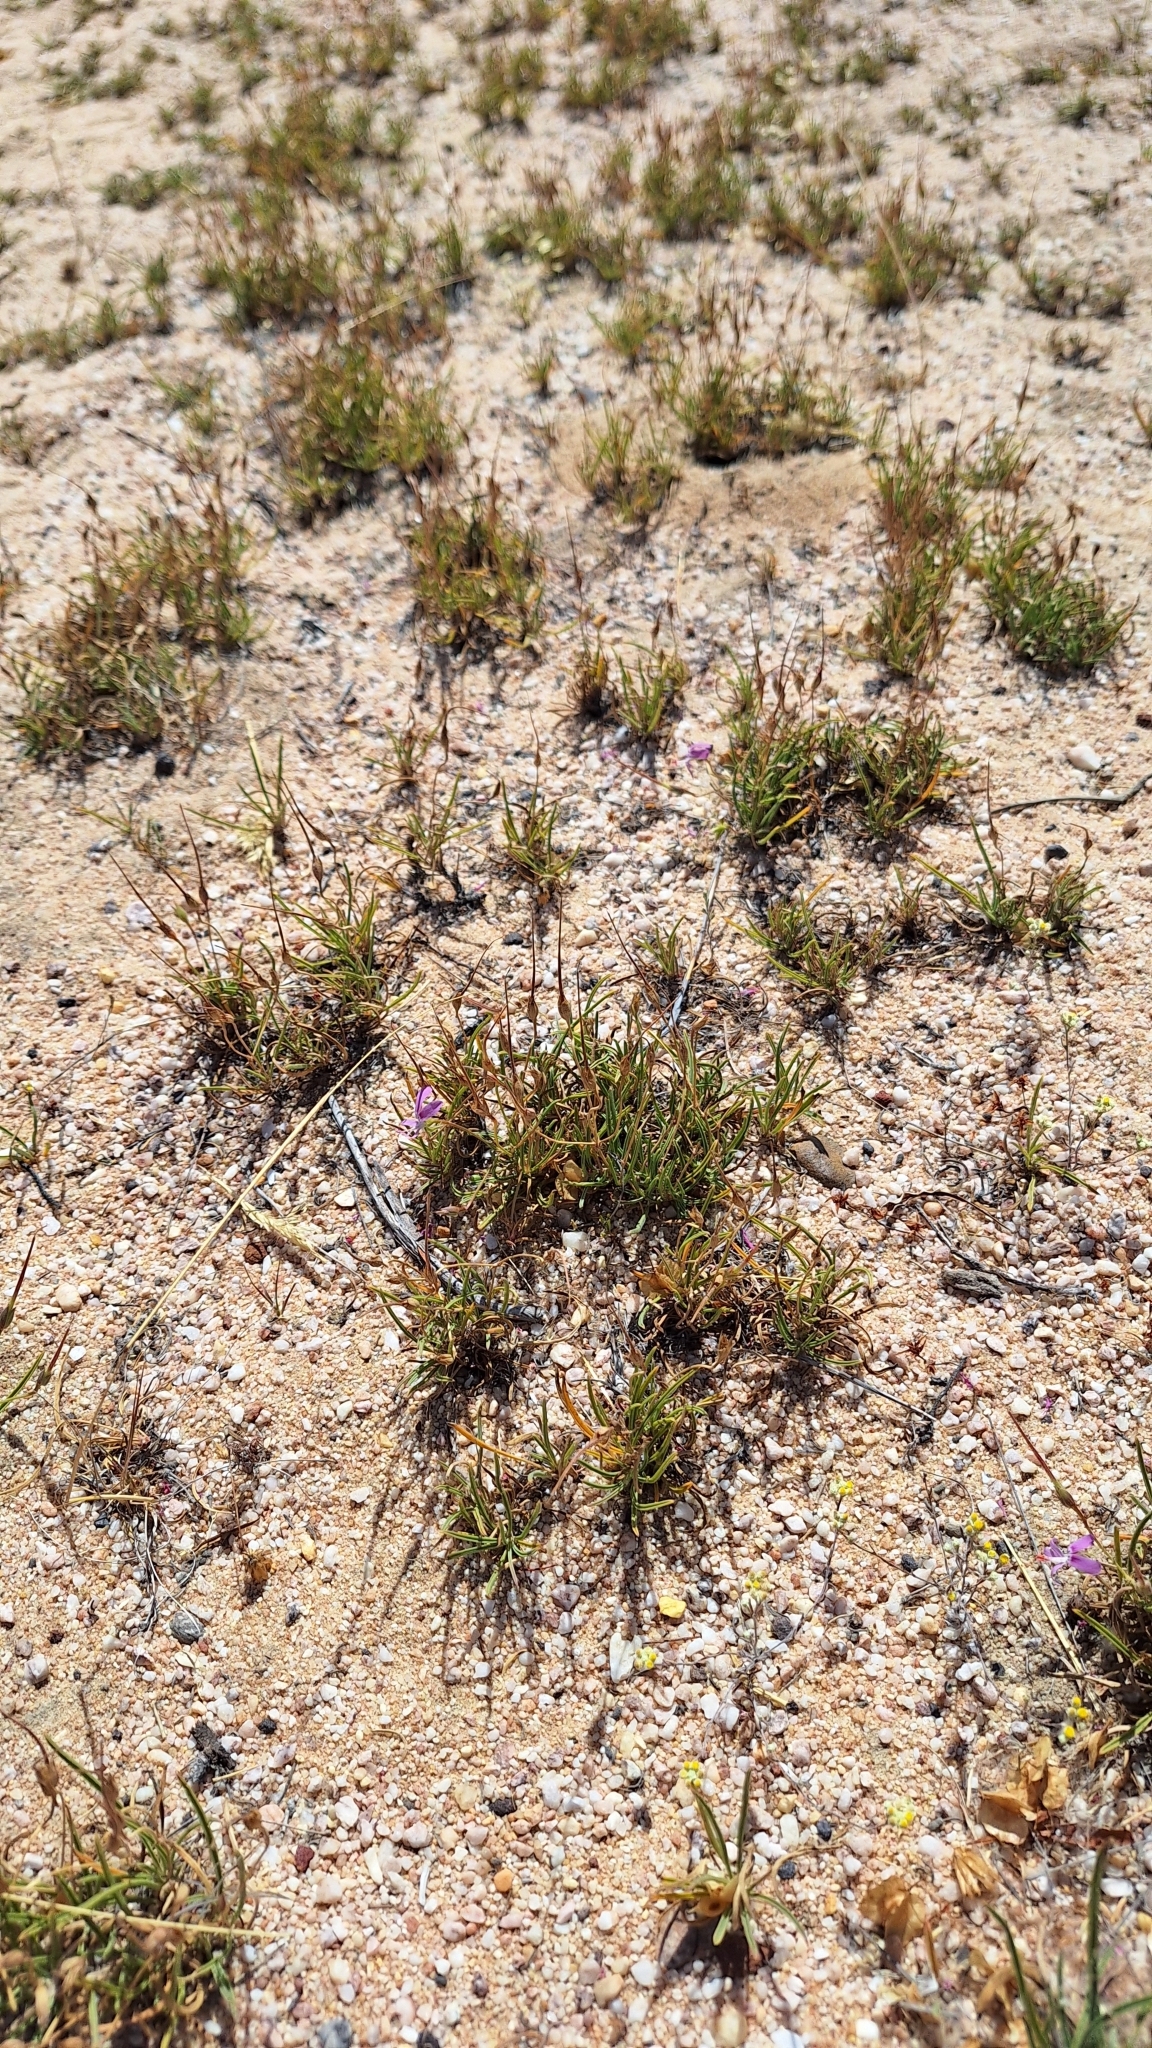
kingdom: Plantae
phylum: Tracheophyta
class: Magnoliopsida
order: Geraniales
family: Geraniaceae
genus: Pelargonium
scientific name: Pelargonium coronopifolium
